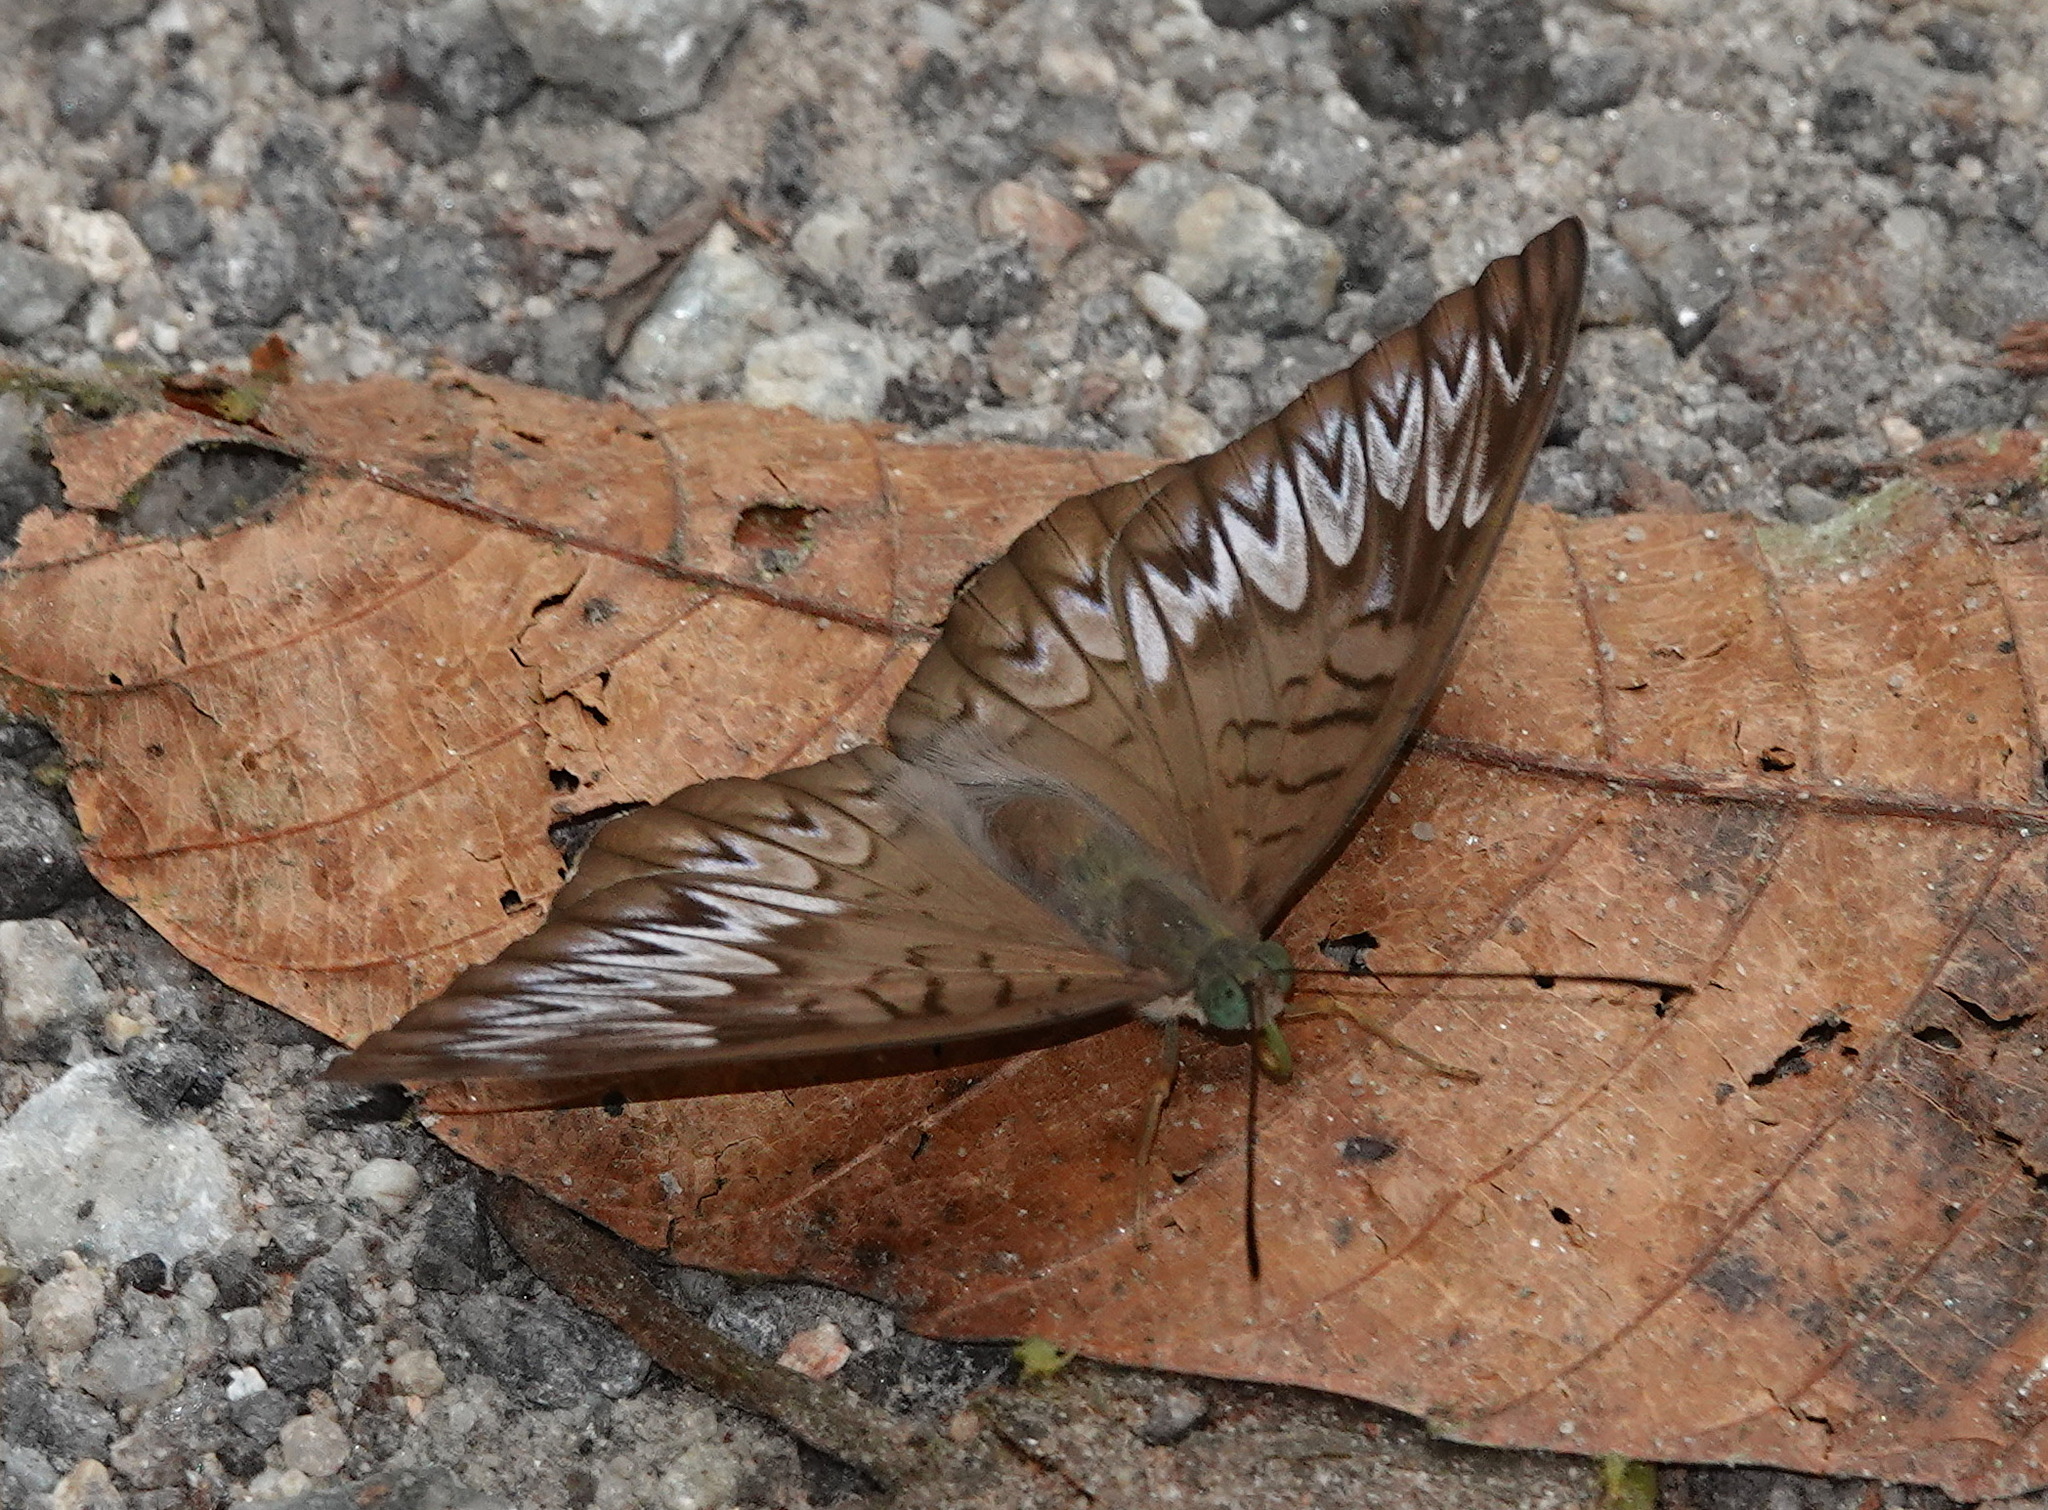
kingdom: Animalia
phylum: Arthropoda
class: Insecta
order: Lepidoptera
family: Nymphalidae
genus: Tanaecia
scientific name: Tanaecia pelea
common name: Malay viscount
